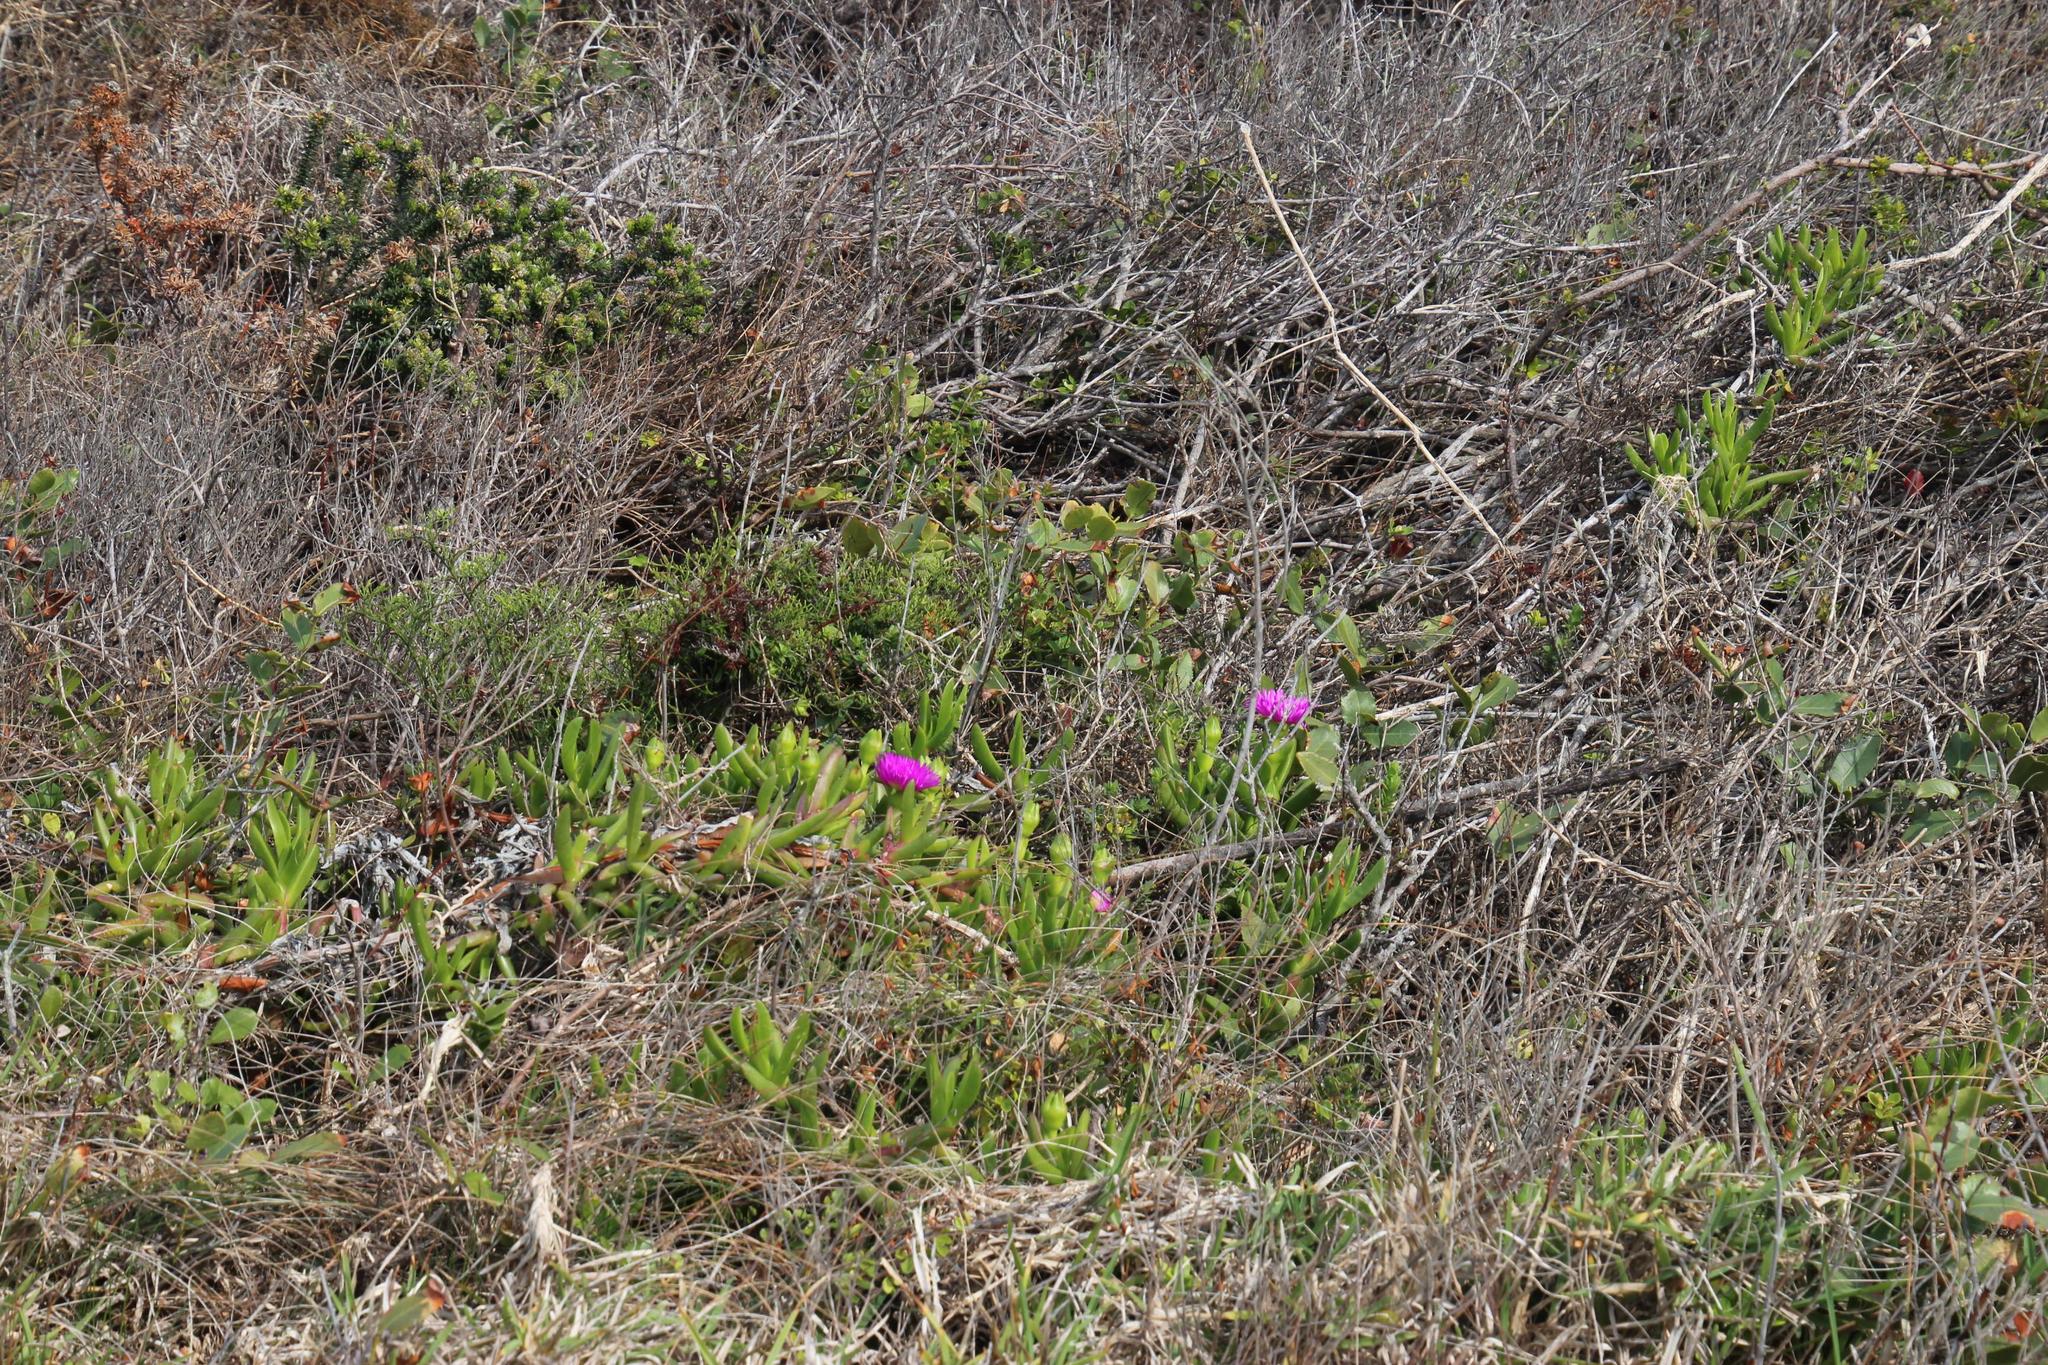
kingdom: Plantae
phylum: Tracheophyta
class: Magnoliopsida
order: Caryophyllales
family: Aizoaceae
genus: Carpobrotus
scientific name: Carpobrotus deliciosus
